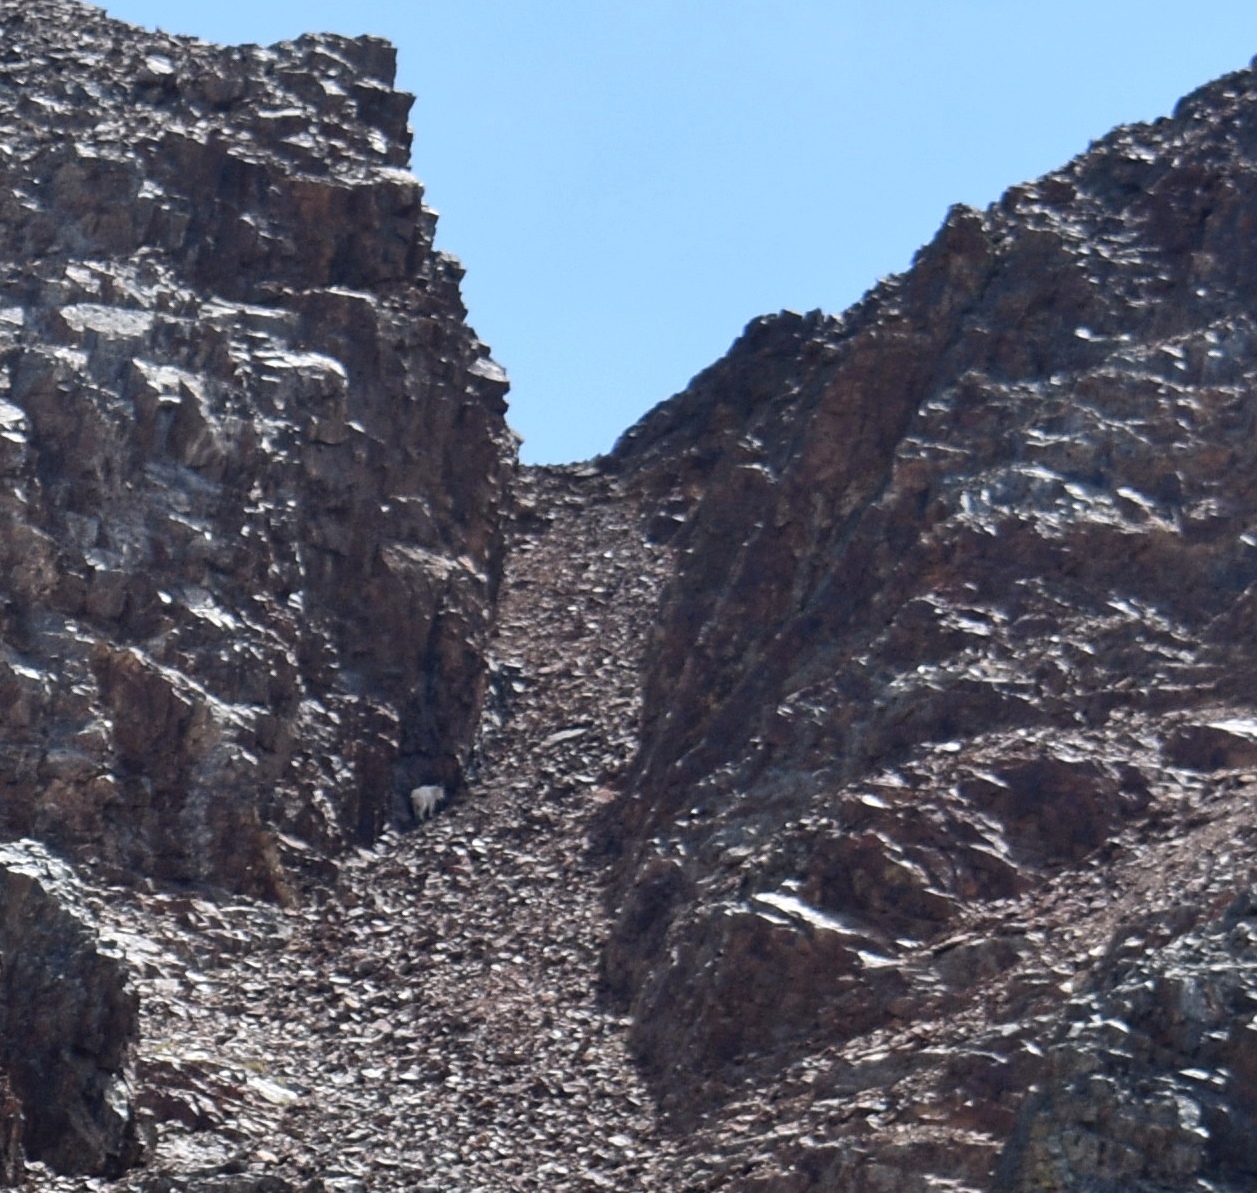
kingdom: Animalia
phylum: Chordata
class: Mammalia
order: Artiodactyla
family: Bovidae
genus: Oreamnos
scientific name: Oreamnos americanus
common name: Mountain goat
